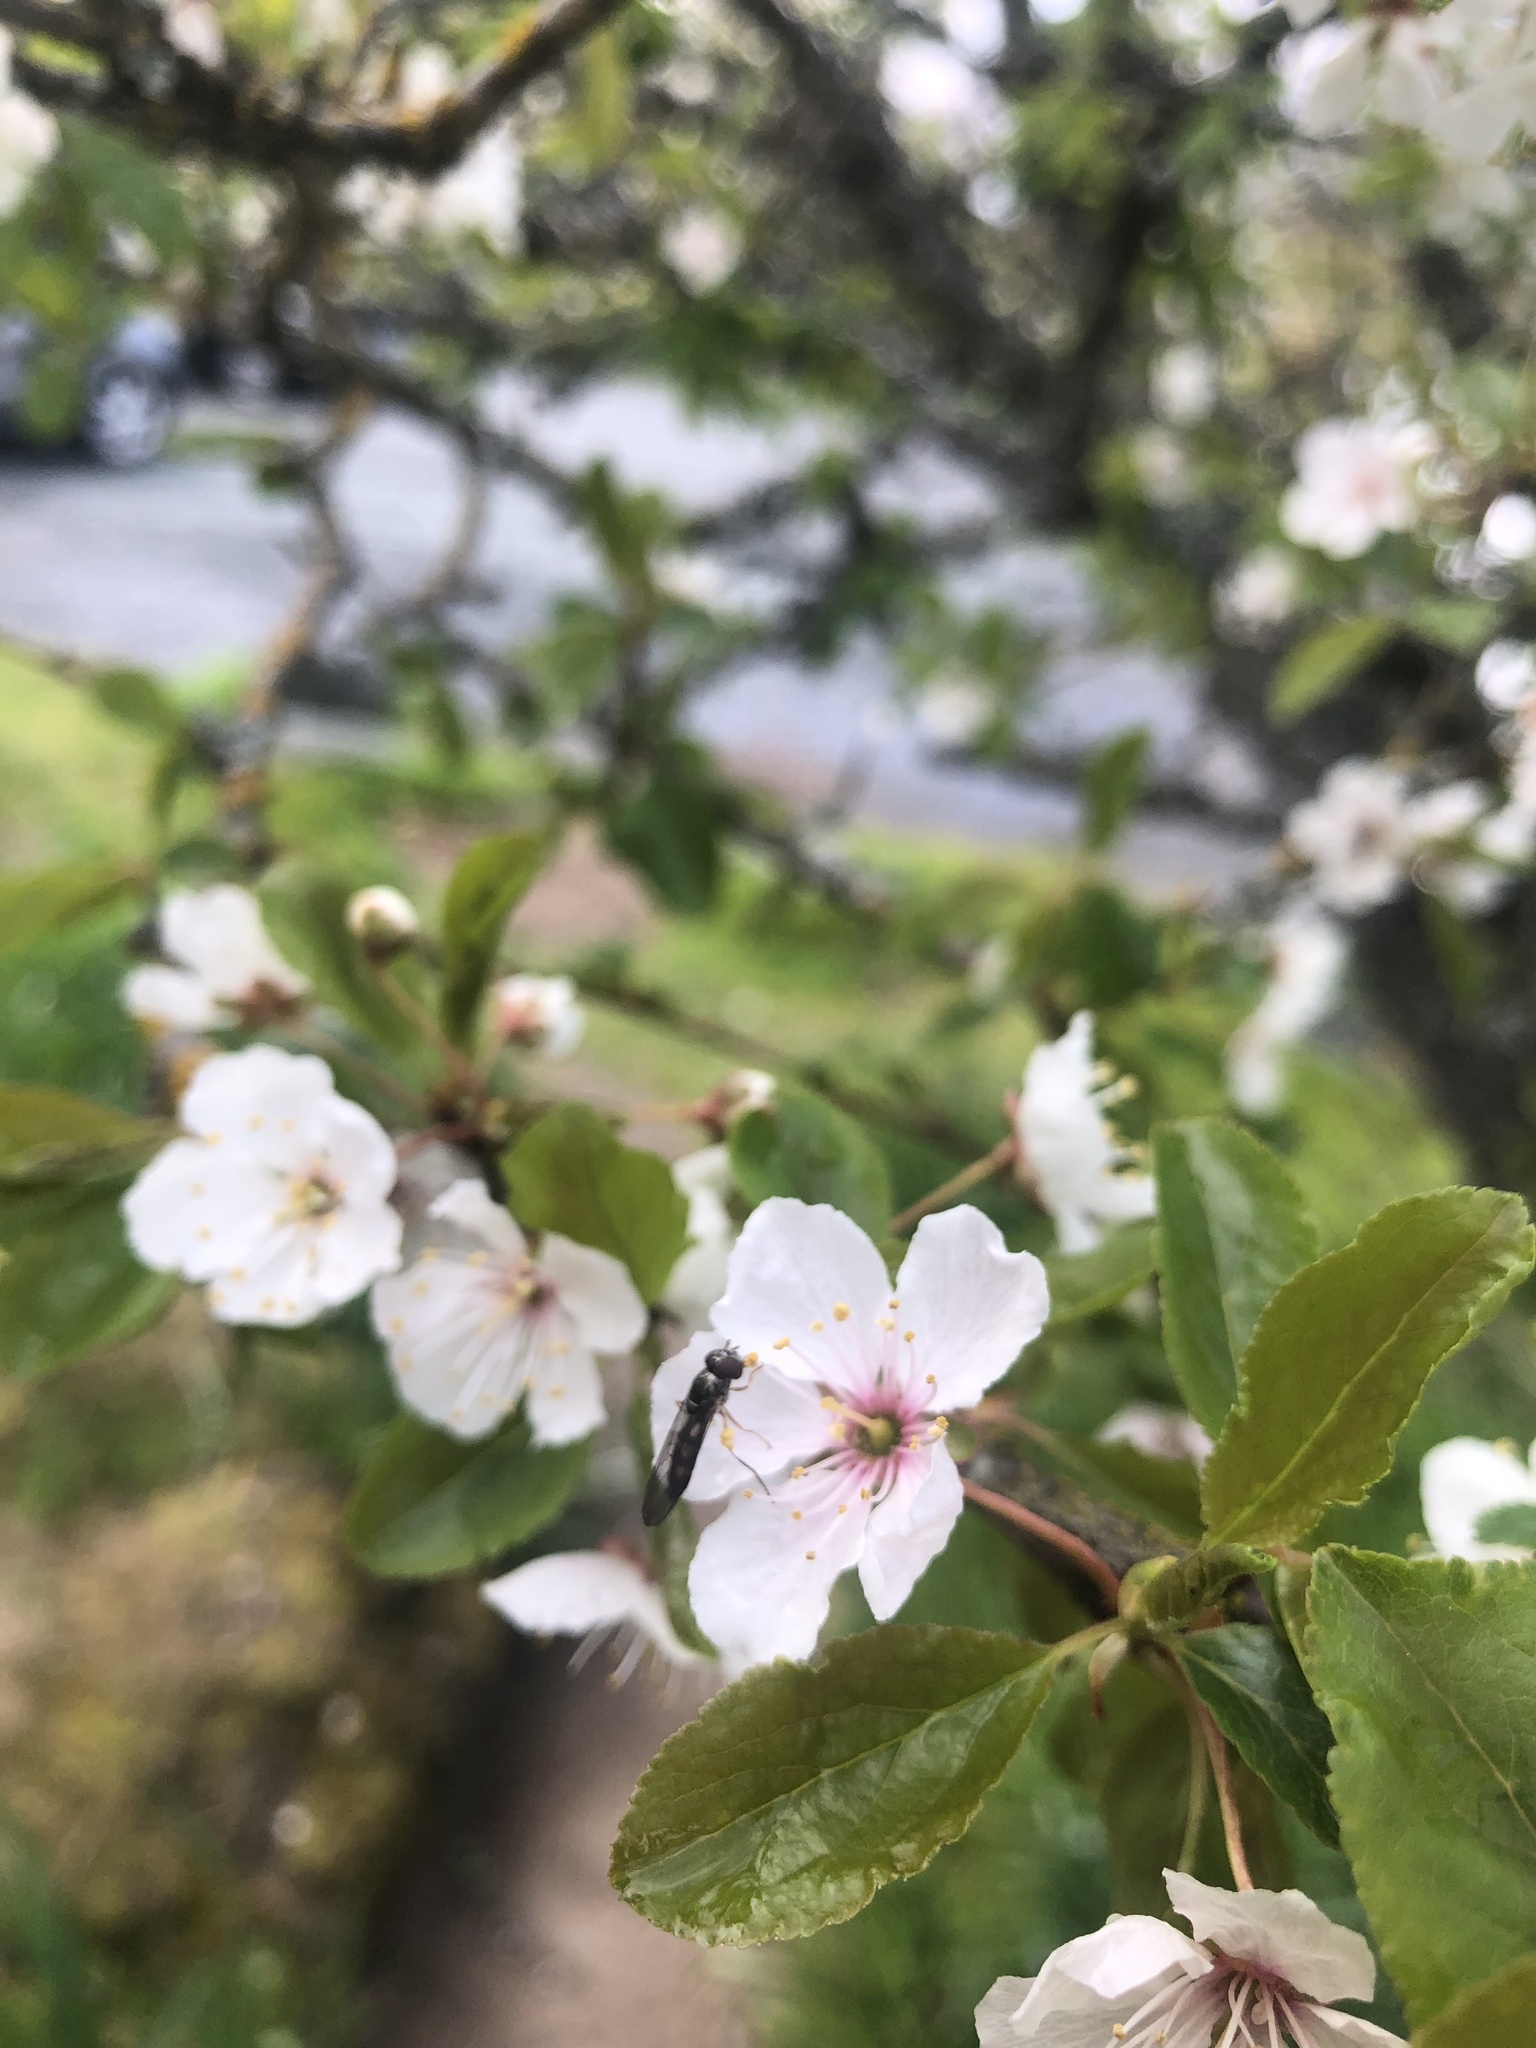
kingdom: Animalia
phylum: Arthropoda
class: Insecta
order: Diptera
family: Syrphidae
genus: Melanostoma
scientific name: Melanostoma mellina
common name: Hover fly
